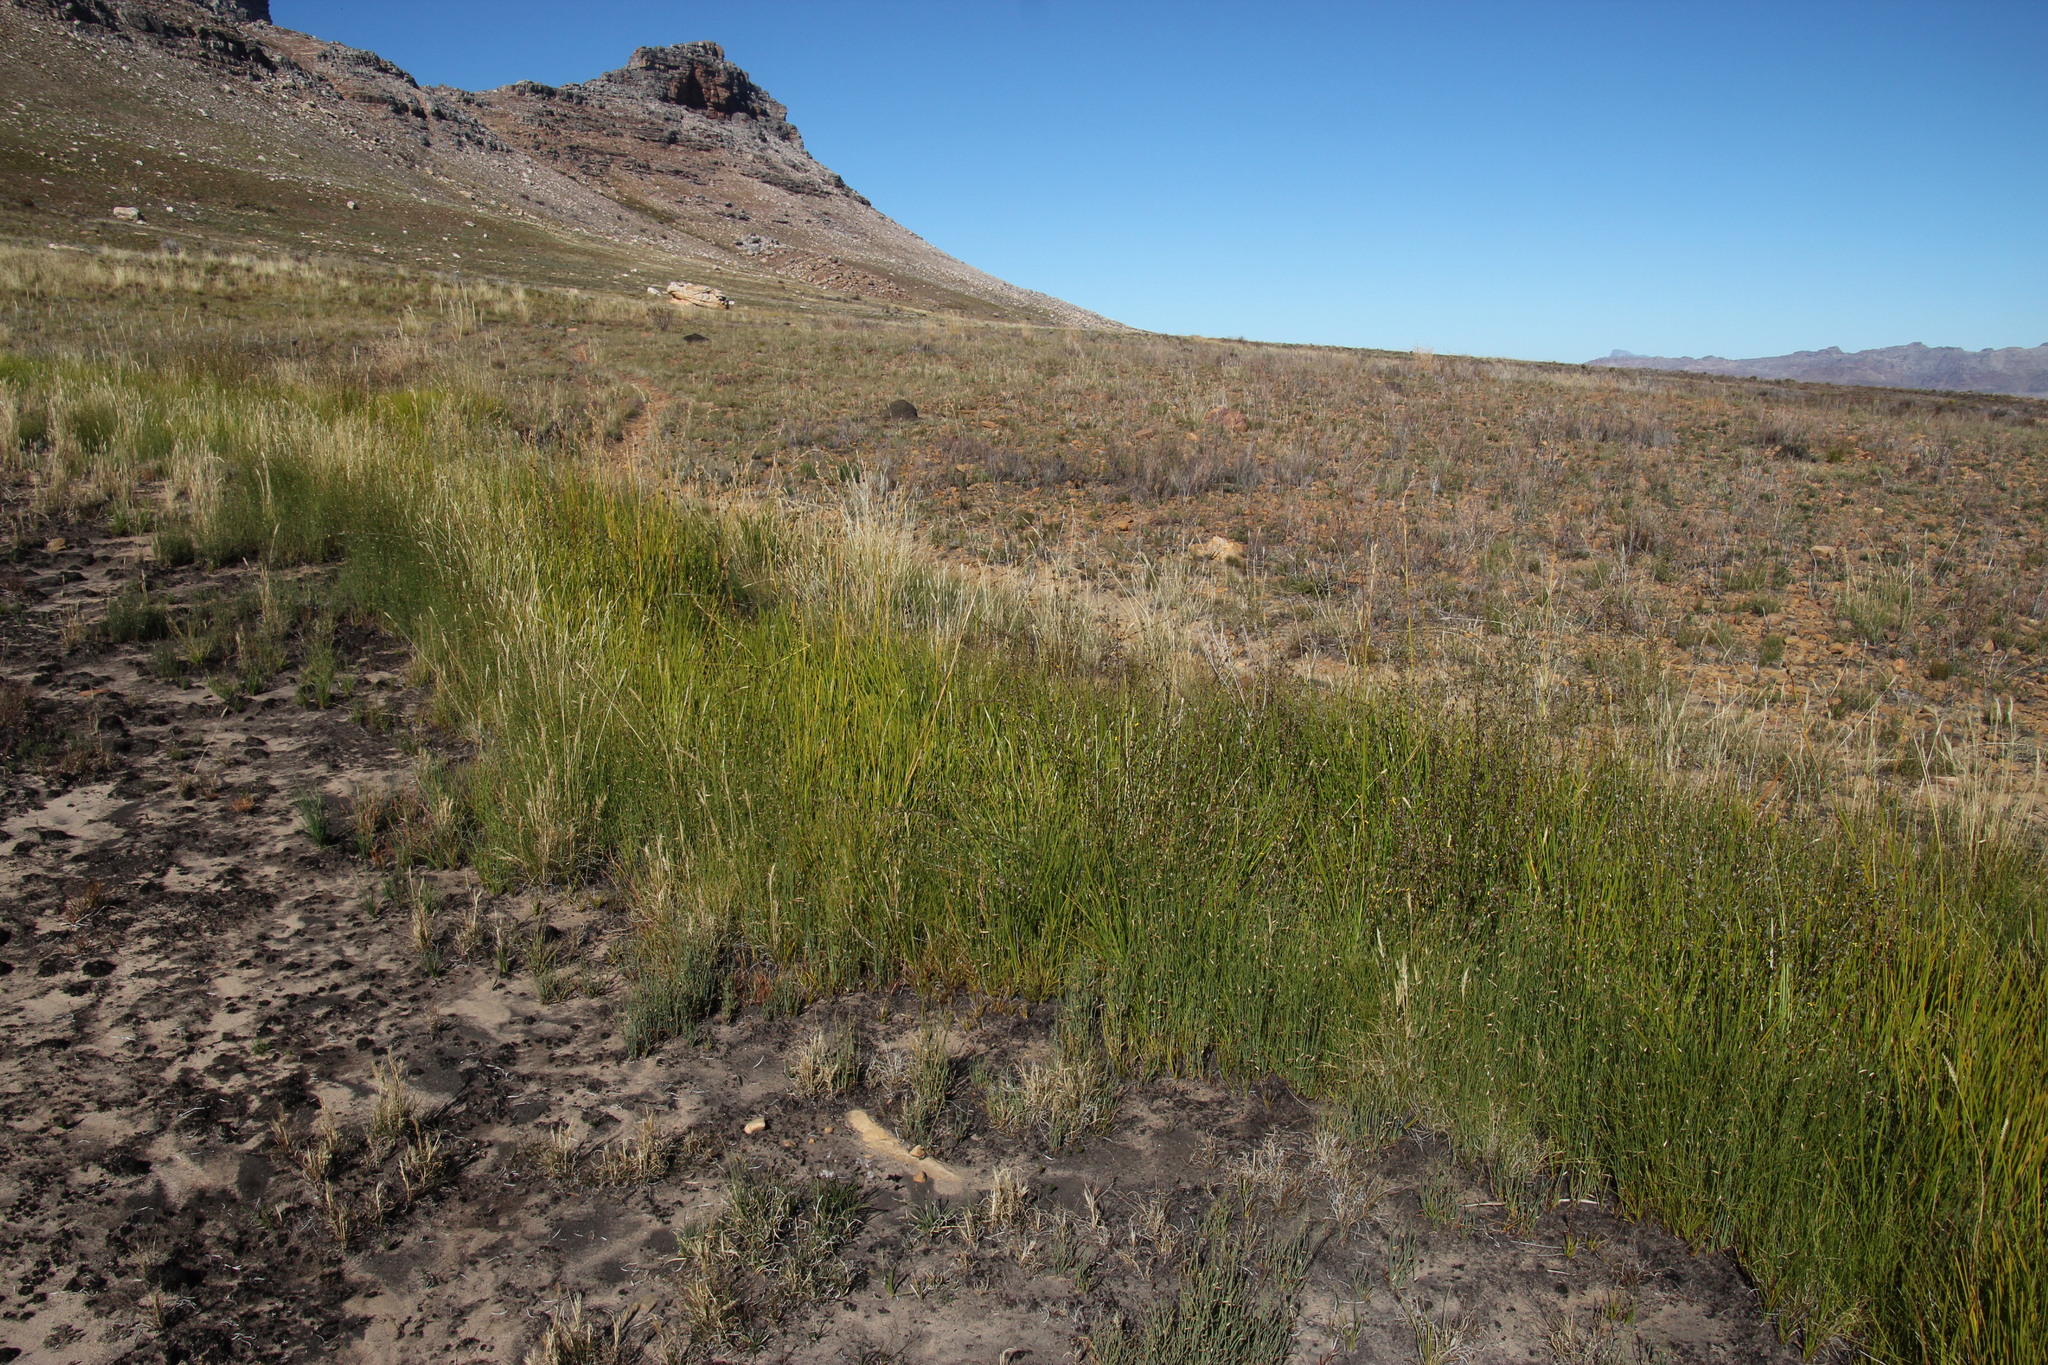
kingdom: Plantae
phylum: Tracheophyta
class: Magnoliopsida
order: Asterales
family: Asteraceae
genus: Senecio
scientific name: Senecio pubigerus
